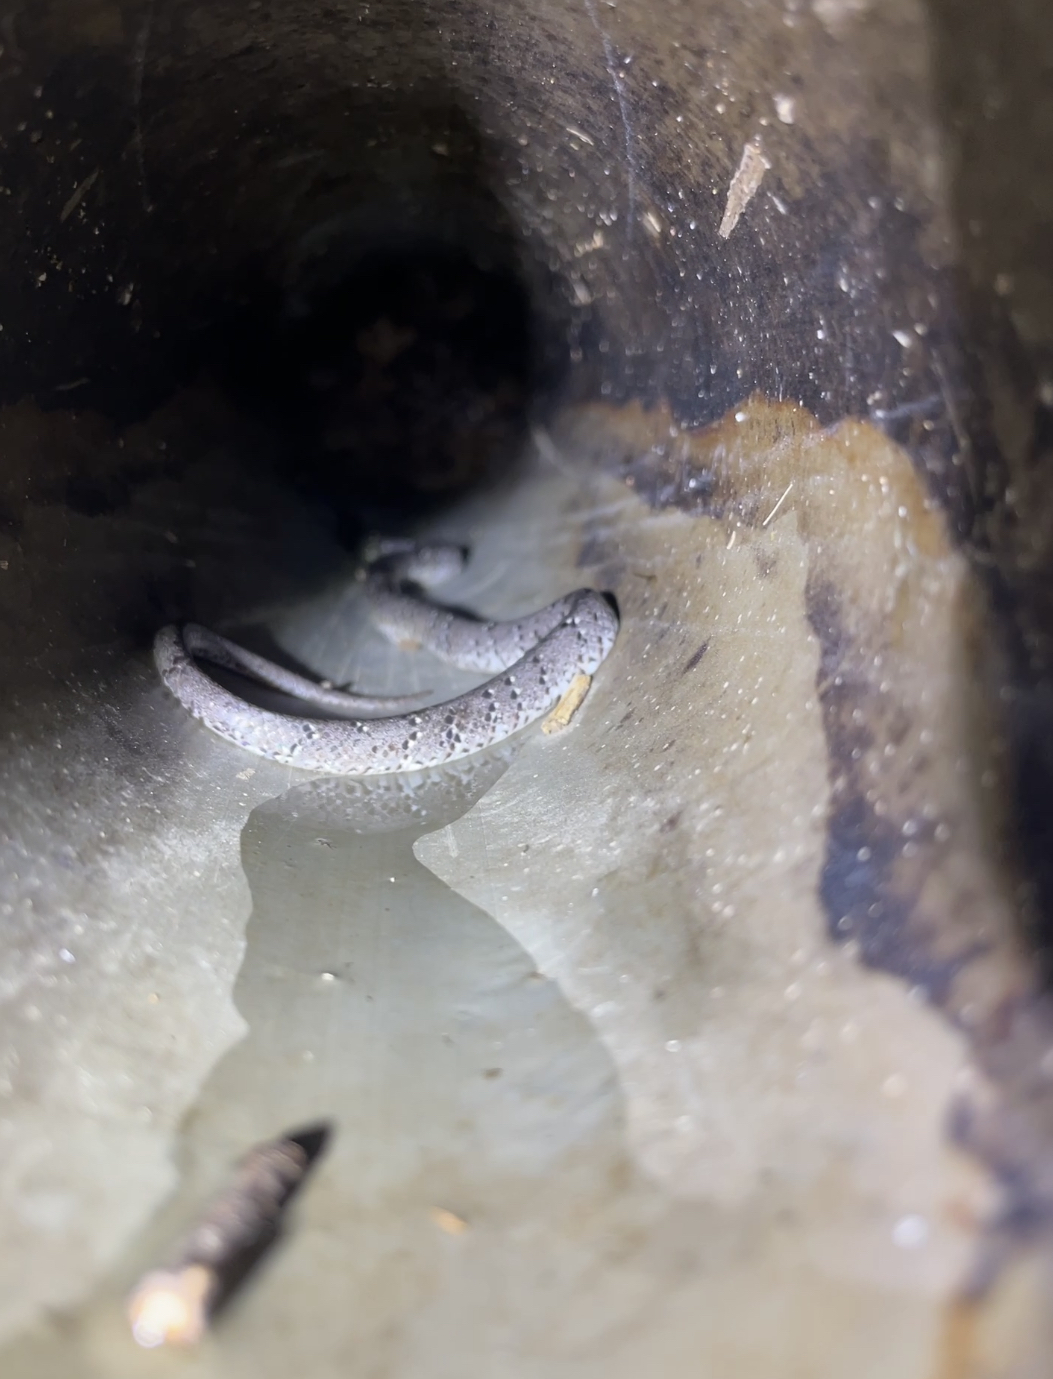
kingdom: Animalia
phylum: Chordata
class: Squamata
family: Pareidae
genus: Pareas
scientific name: Pareas margaritophorus
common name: Mountain slug snake
